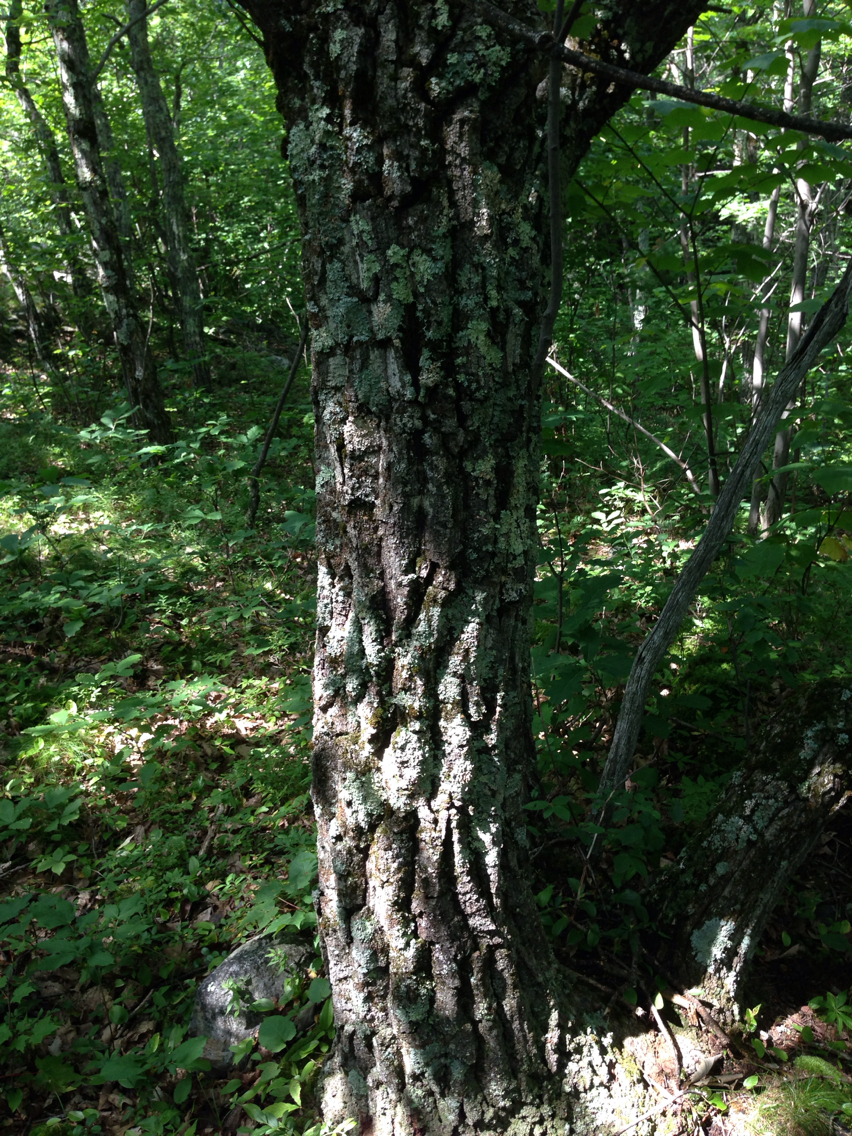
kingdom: Plantae
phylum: Tracheophyta
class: Magnoliopsida
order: Fagales
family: Fagaceae
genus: Quercus
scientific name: Quercus montana
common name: Chestnut oak
